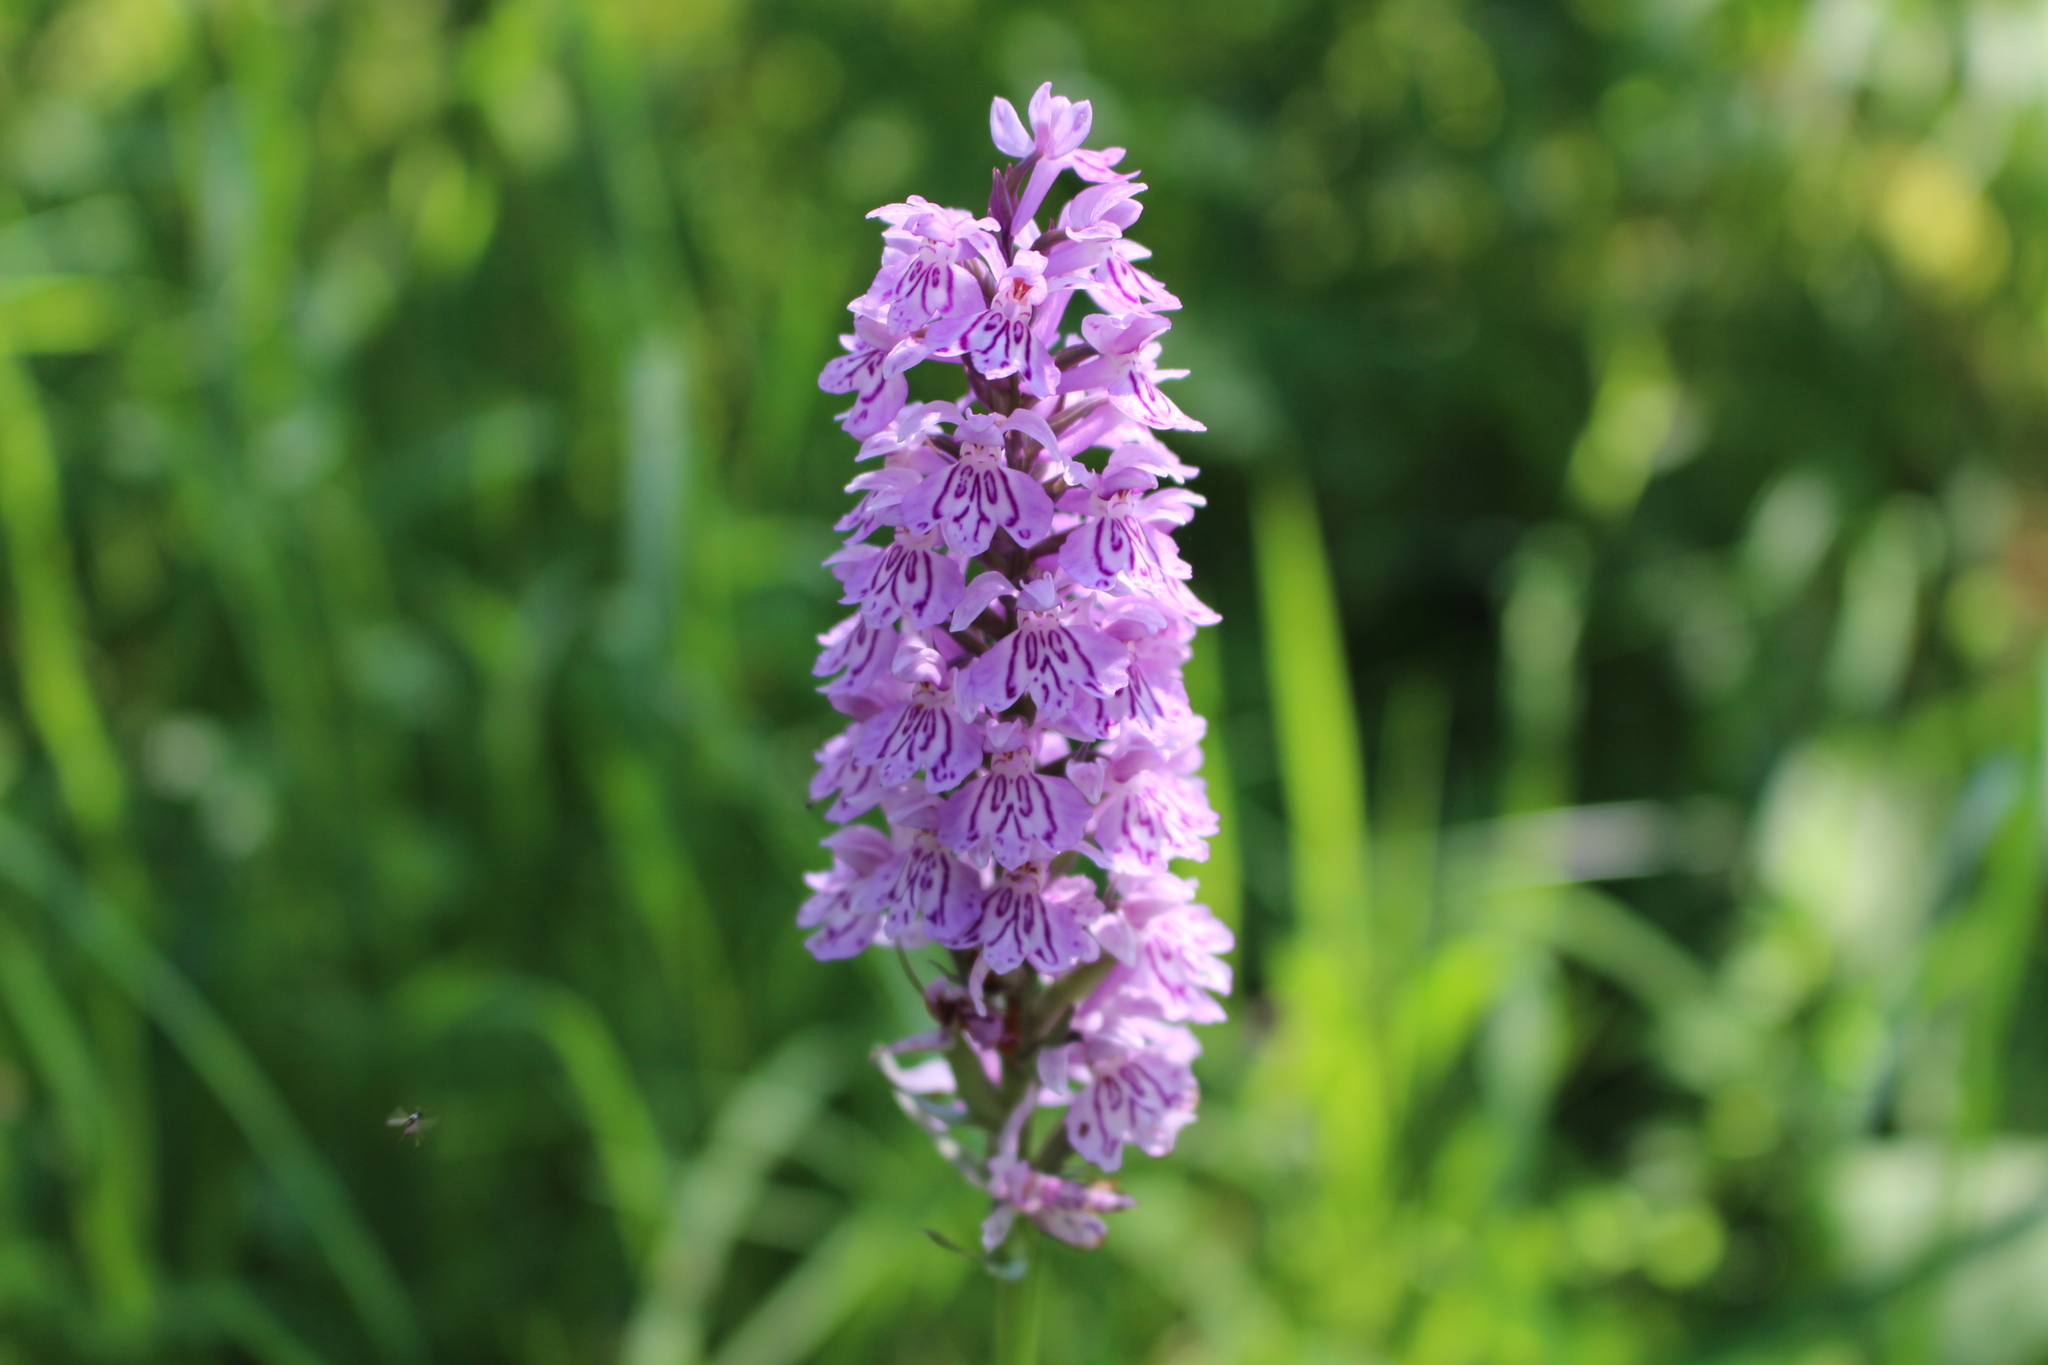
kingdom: Plantae
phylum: Tracheophyta
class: Liliopsida
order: Asparagales
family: Orchidaceae
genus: Dactylorhiza
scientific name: Dactylorhiza maculata
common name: Heath spotted-orchid
